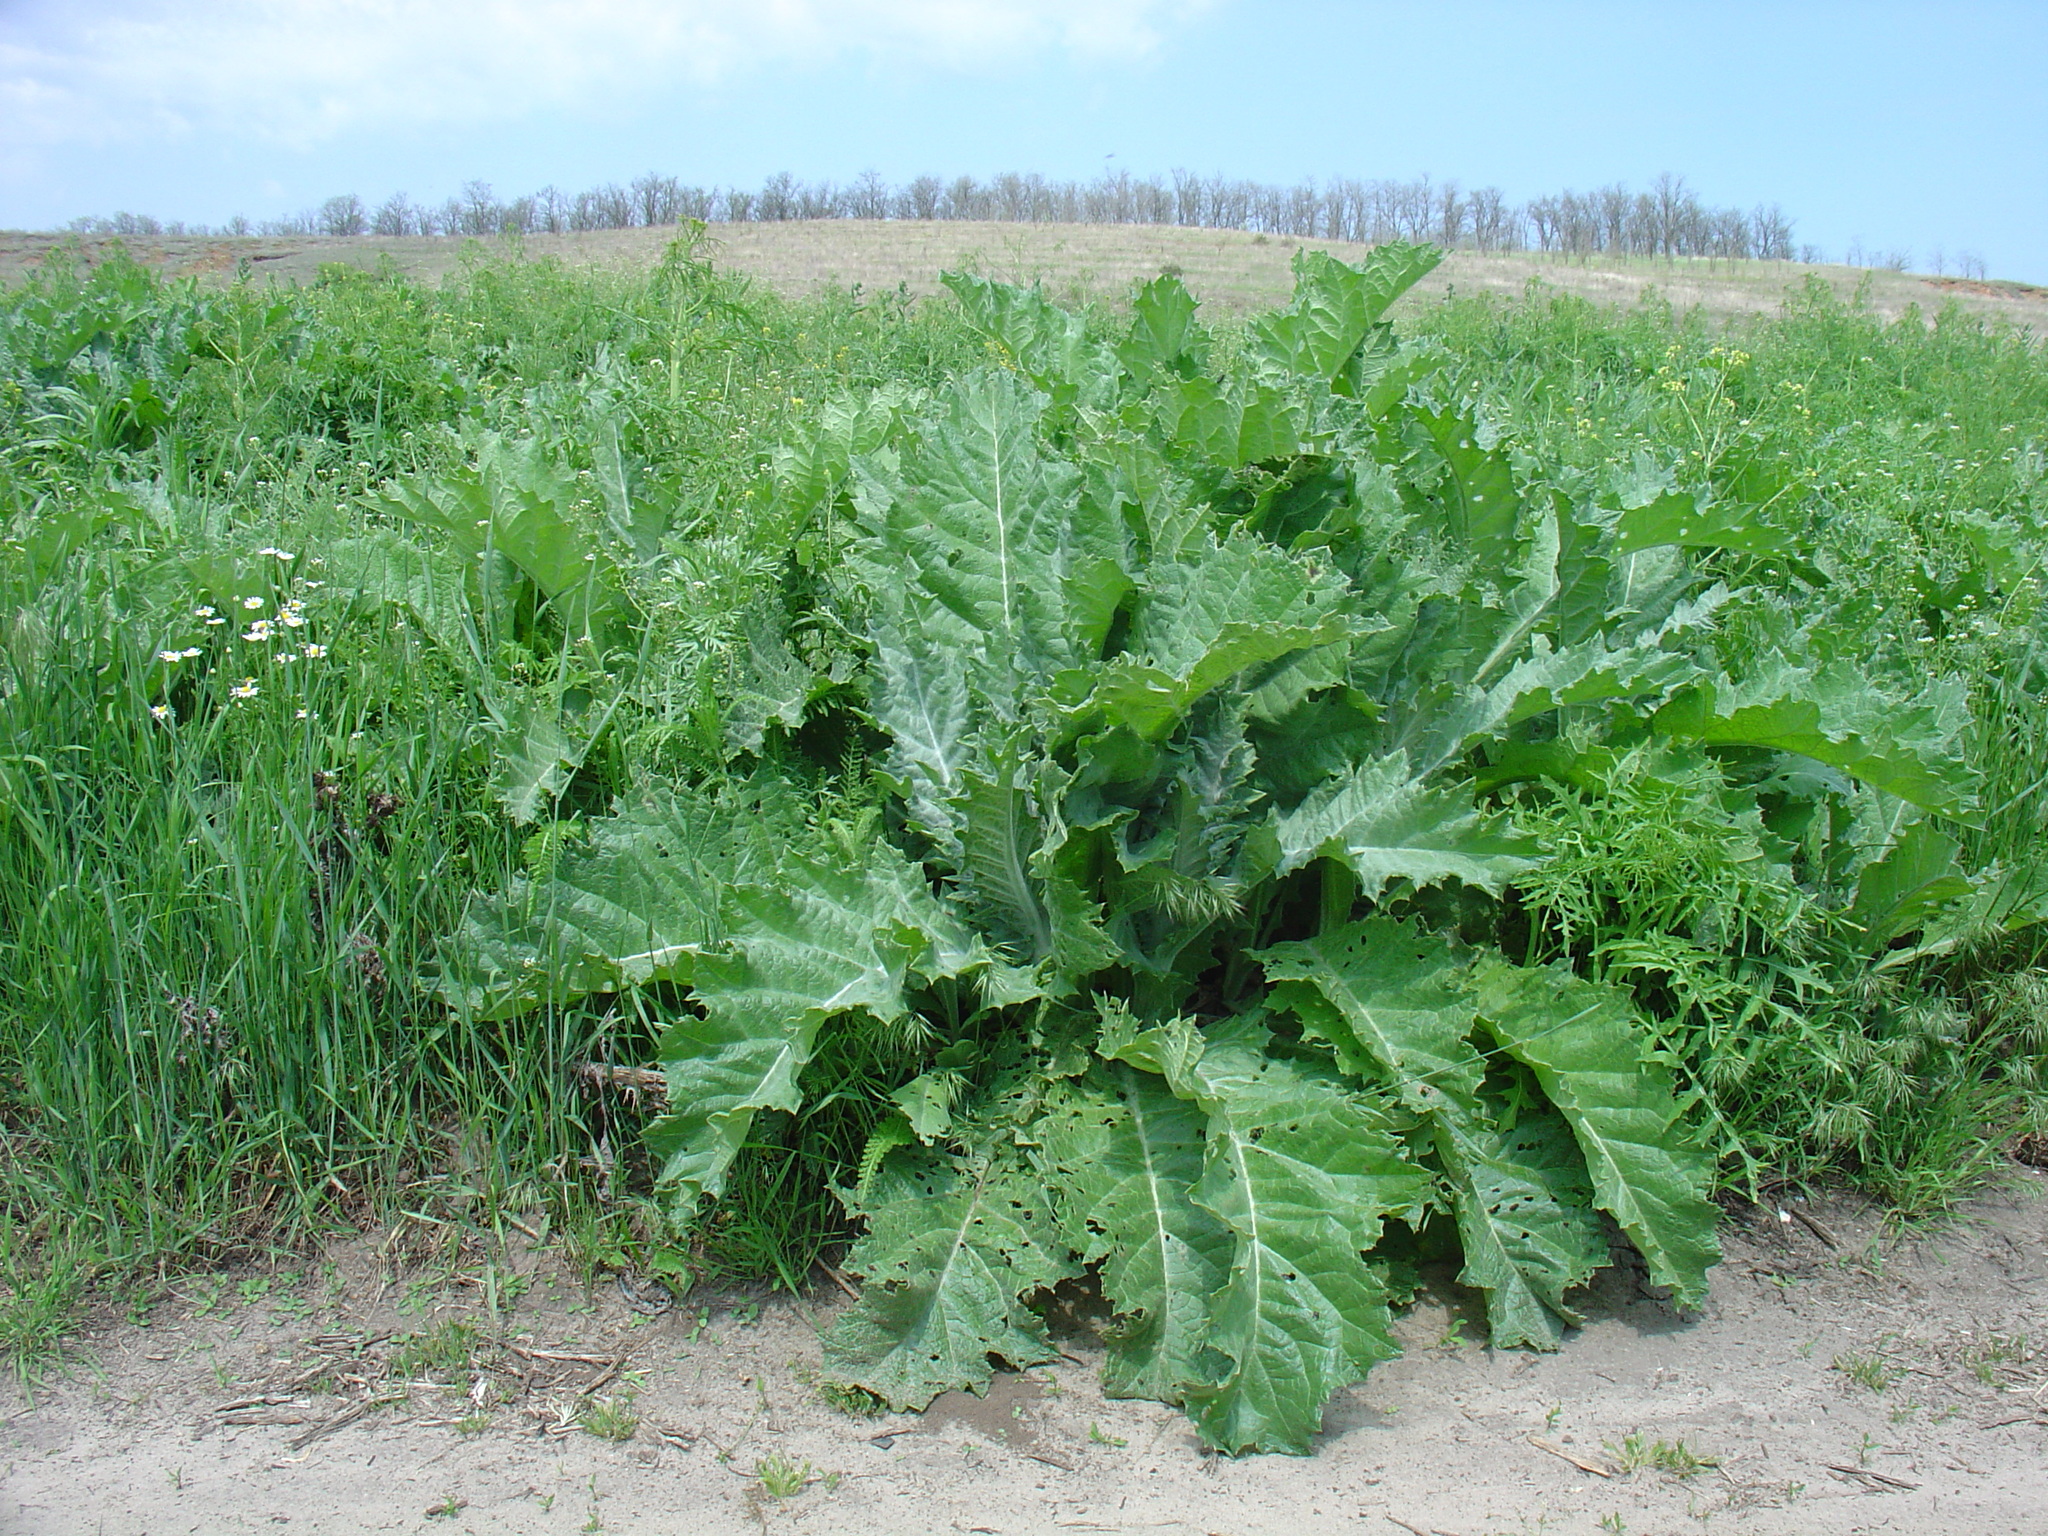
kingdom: Plantae
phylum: Tracheophyta
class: Magnoliopsida
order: Asterales
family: Asteraceae
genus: Onopordum
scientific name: Onopordum acanthium
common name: Scotch thistle
